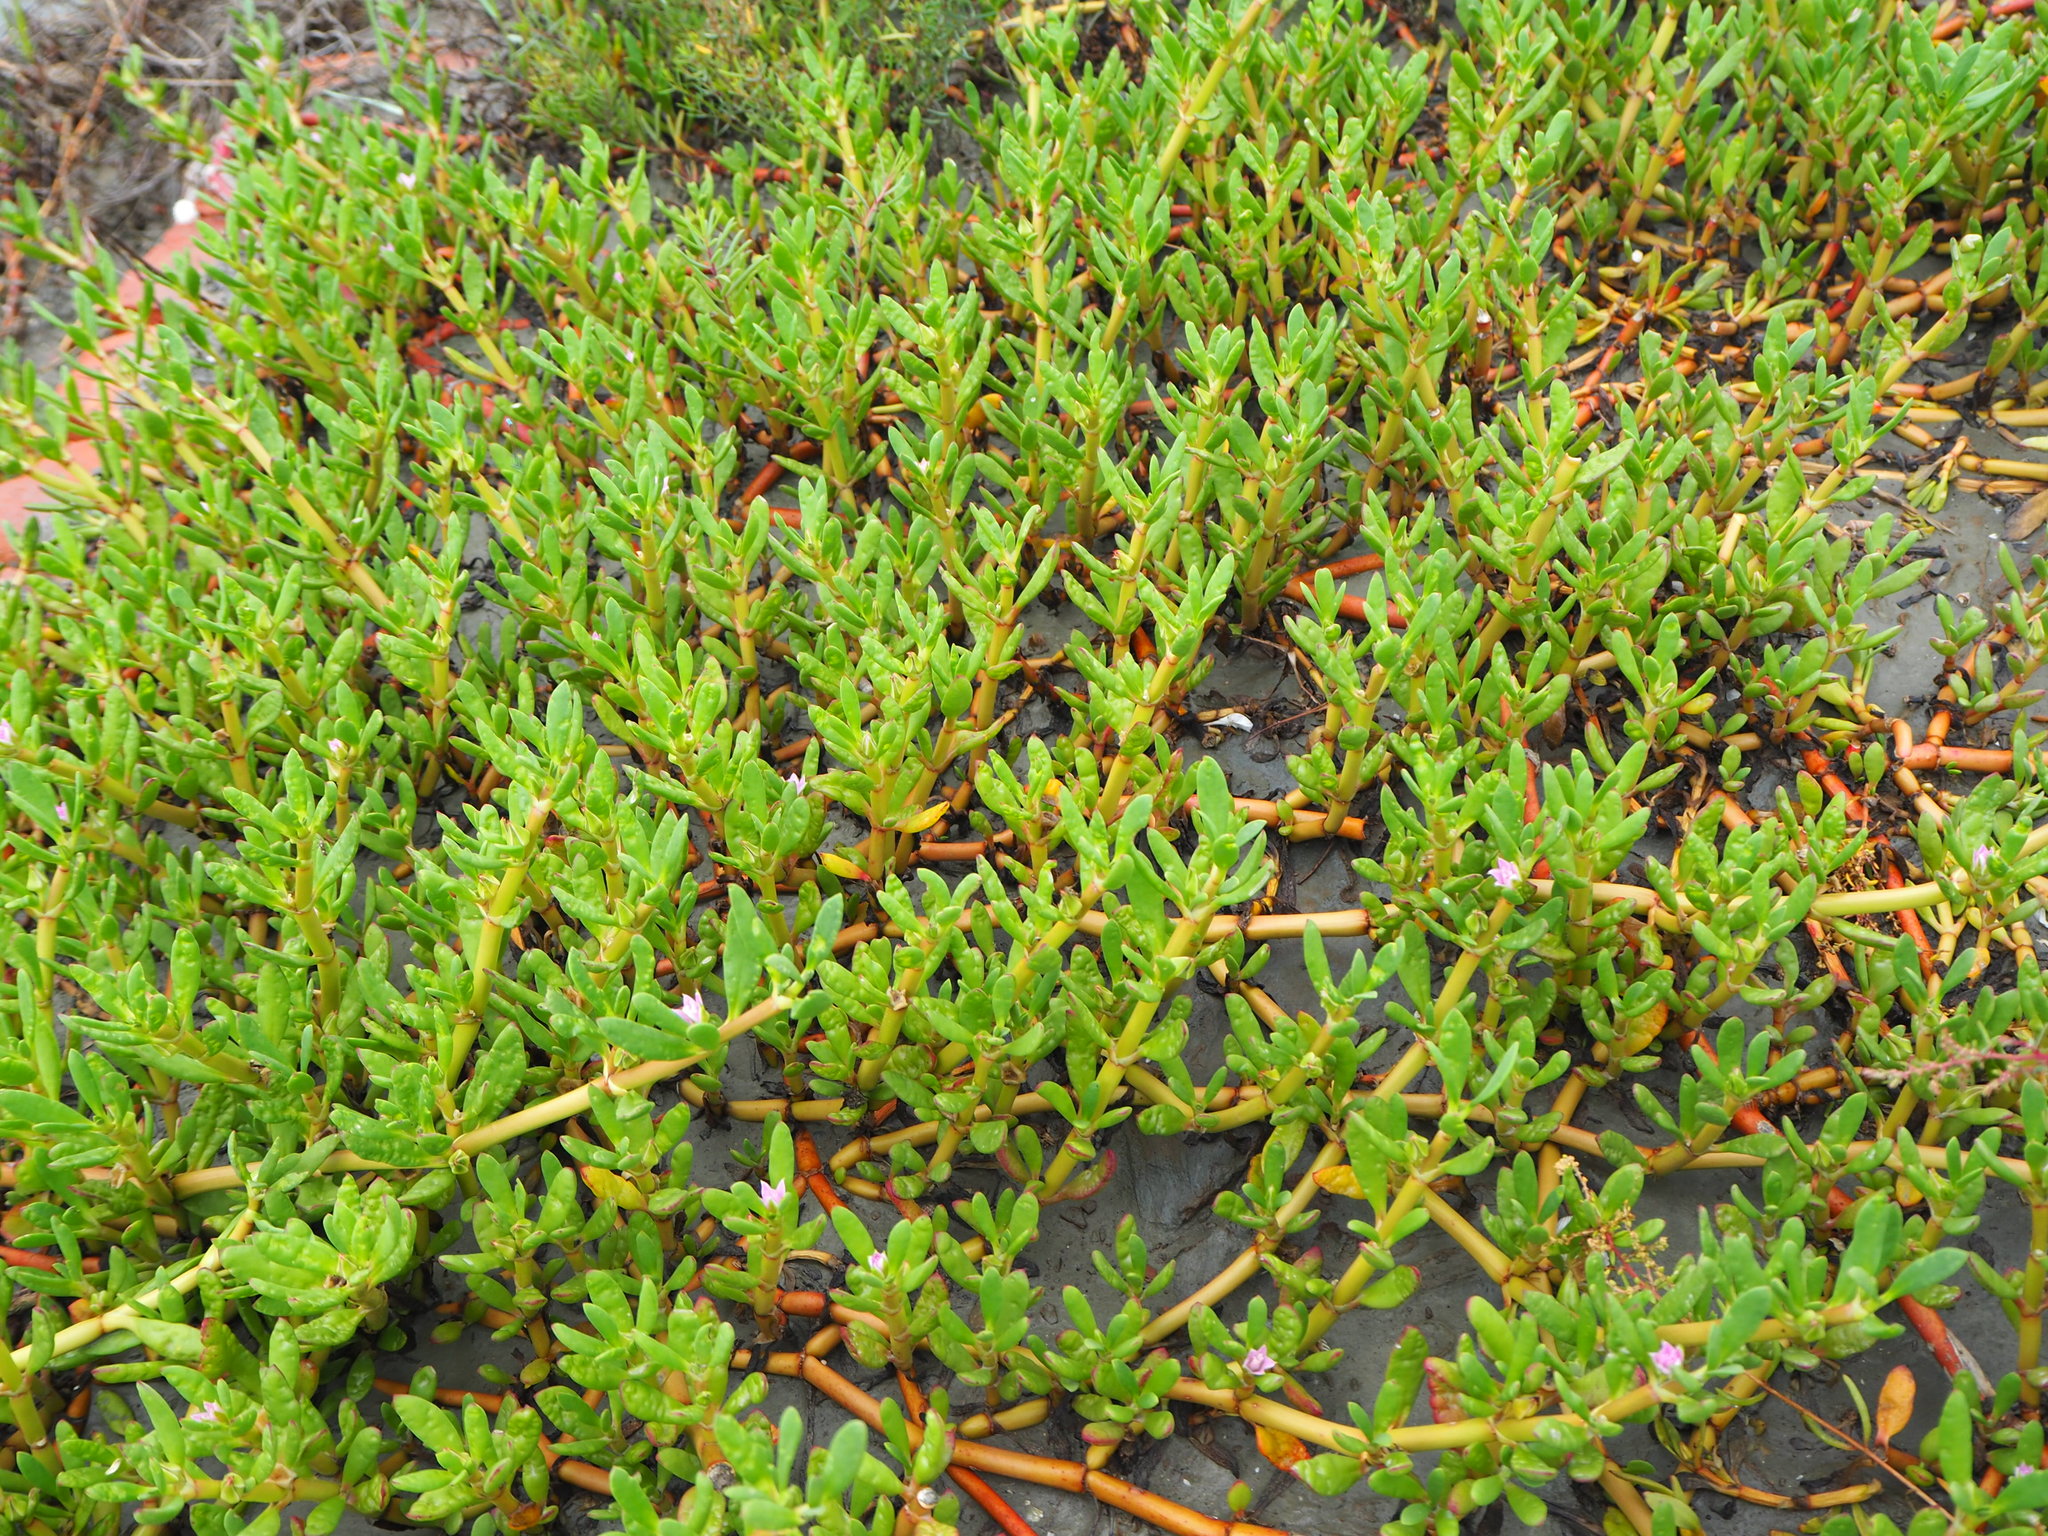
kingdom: Plantae
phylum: Tracheophyta
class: Magnoliopsida
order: Caryophyllales
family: Aizoaceae
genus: Sesuvium
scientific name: Sesuvium portulacastrum
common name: Sea-purslane
